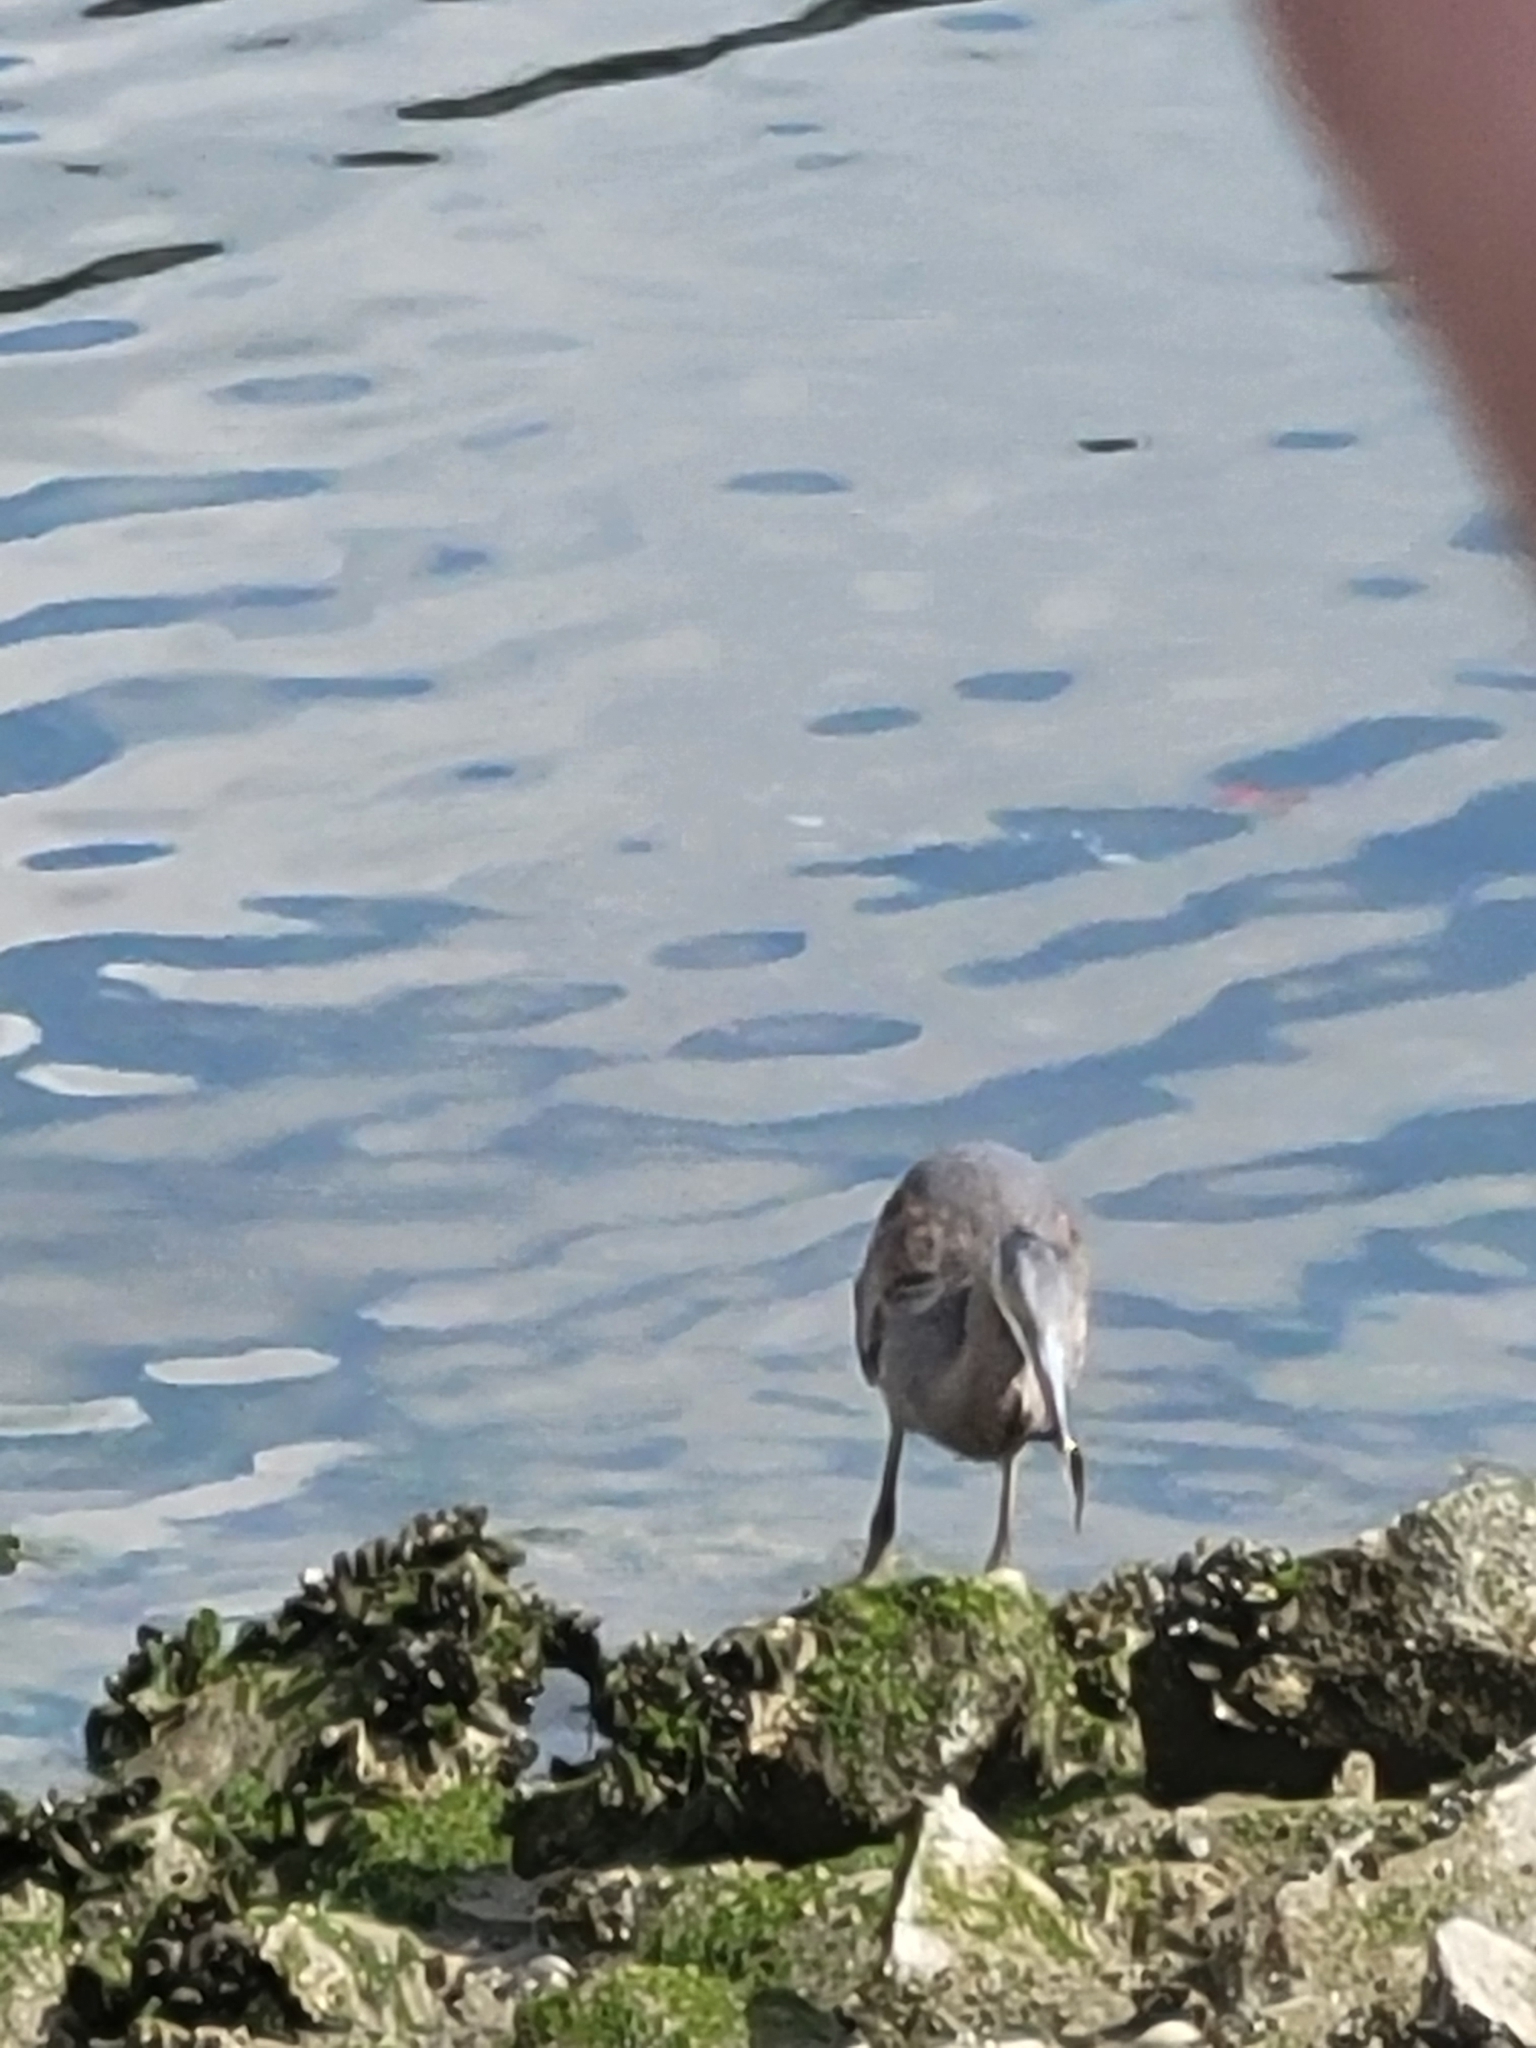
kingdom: Animalia
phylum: Chordata
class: Aves
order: Pelecaniformes
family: Ardeidae
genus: Ardea
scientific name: Ardea herodias
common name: Great blue heron
